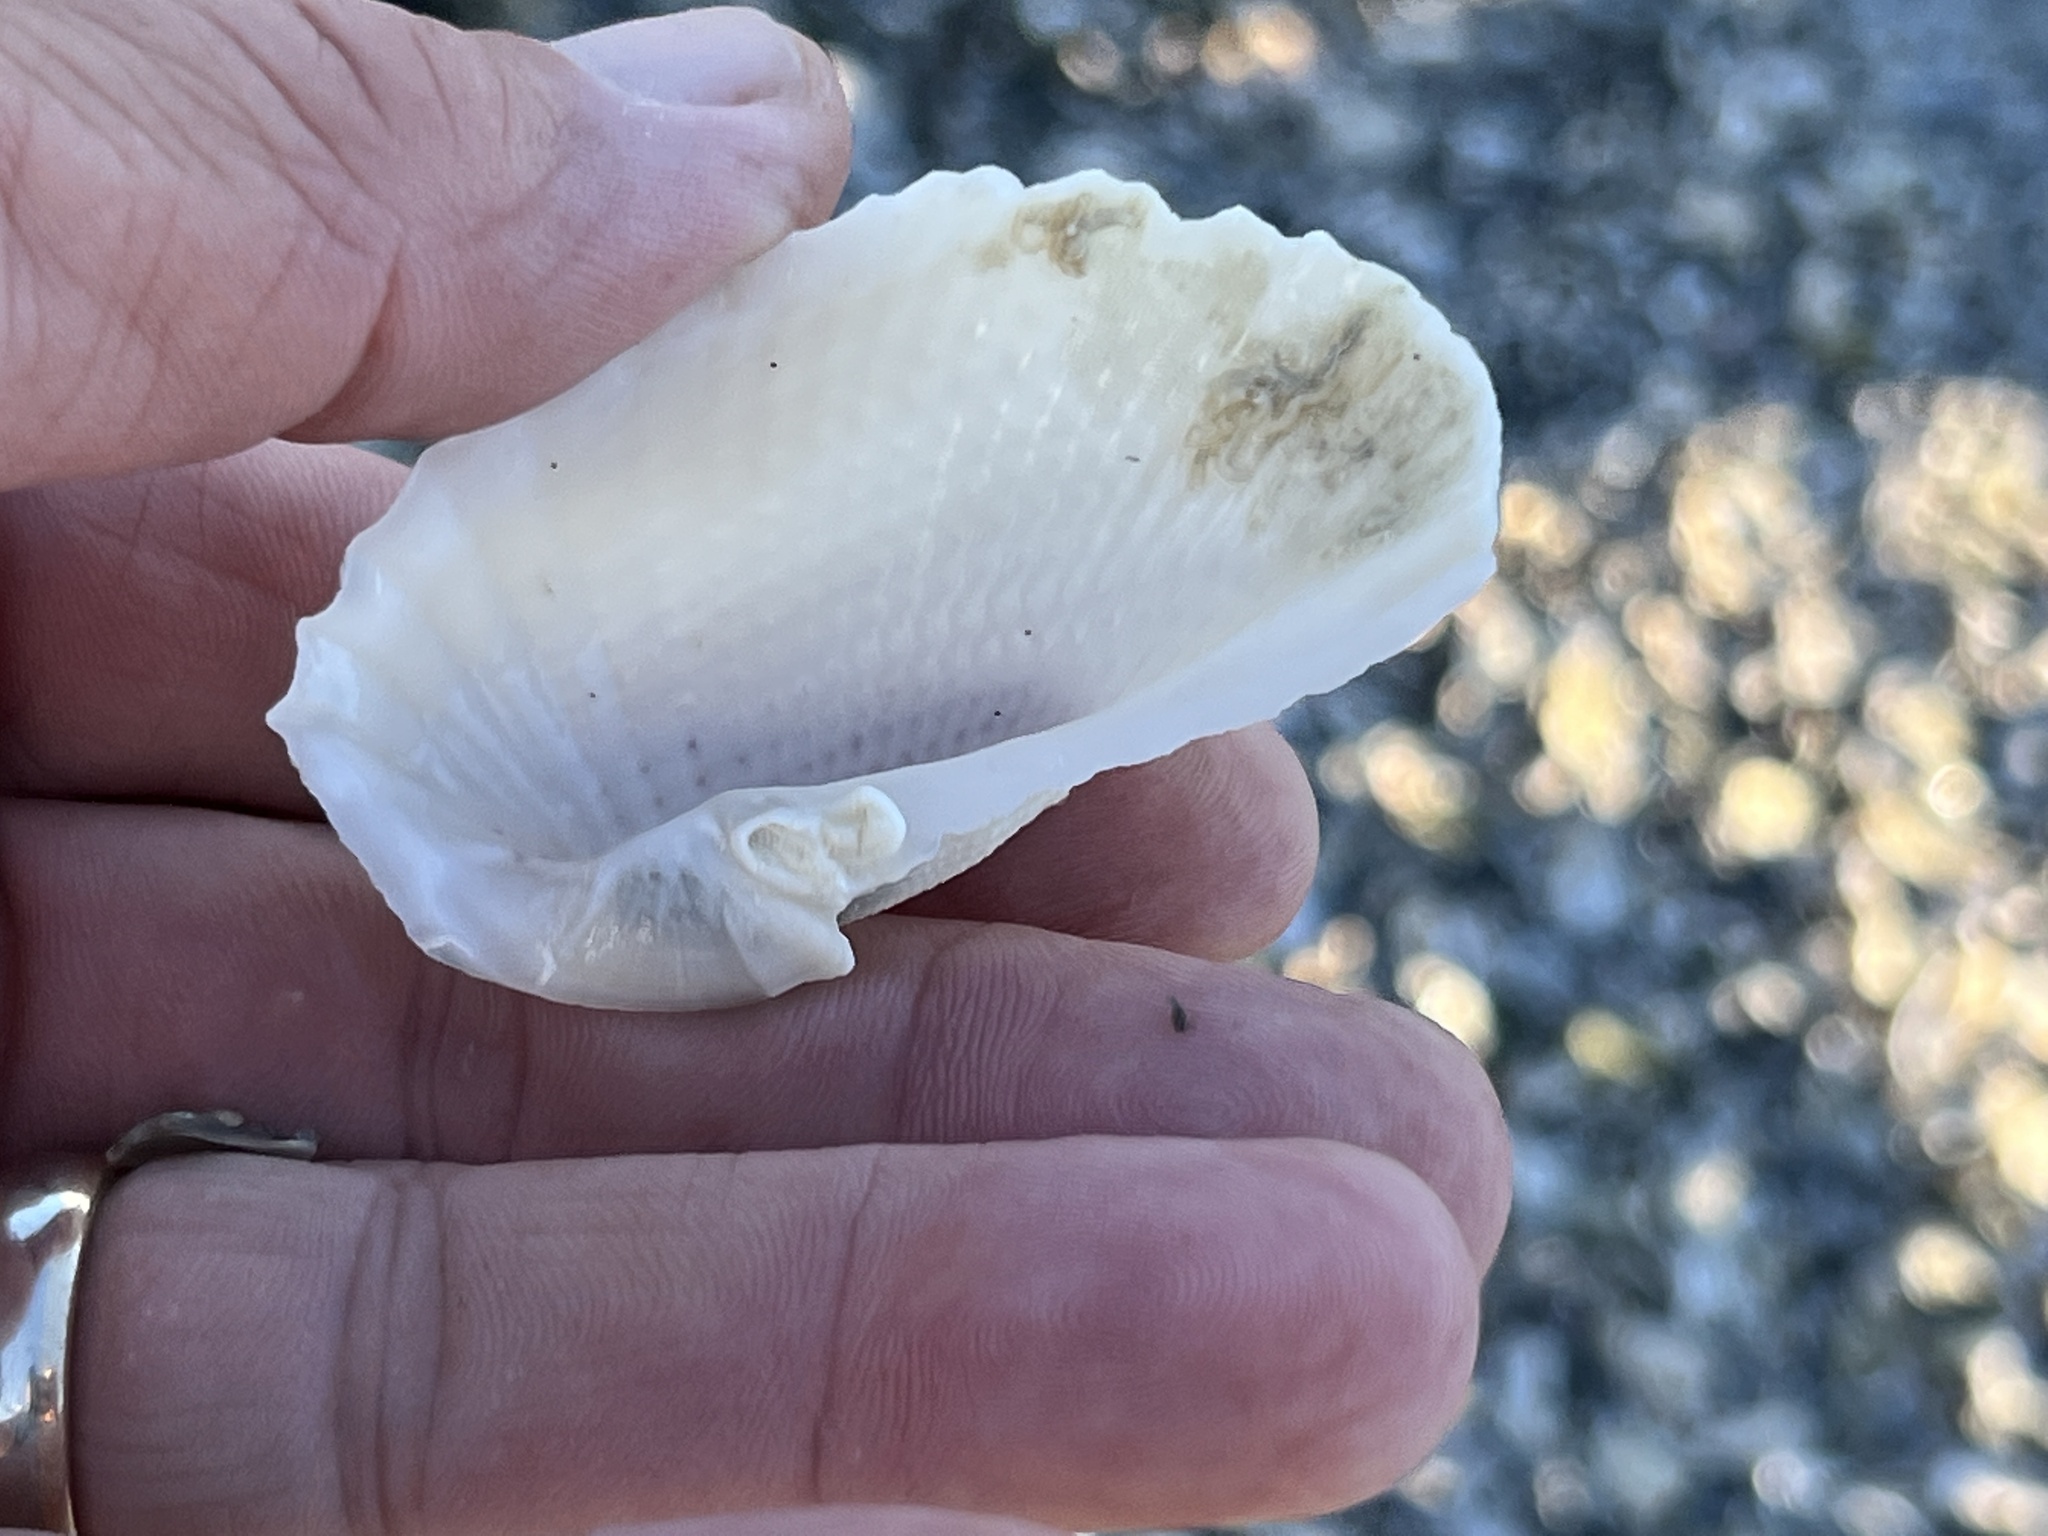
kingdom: Animalia
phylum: Mollusca
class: Bivalvia
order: Myida
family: Pholadidae
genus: Cyrtopleura
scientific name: Cyrtopleura costata
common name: Angel wing
